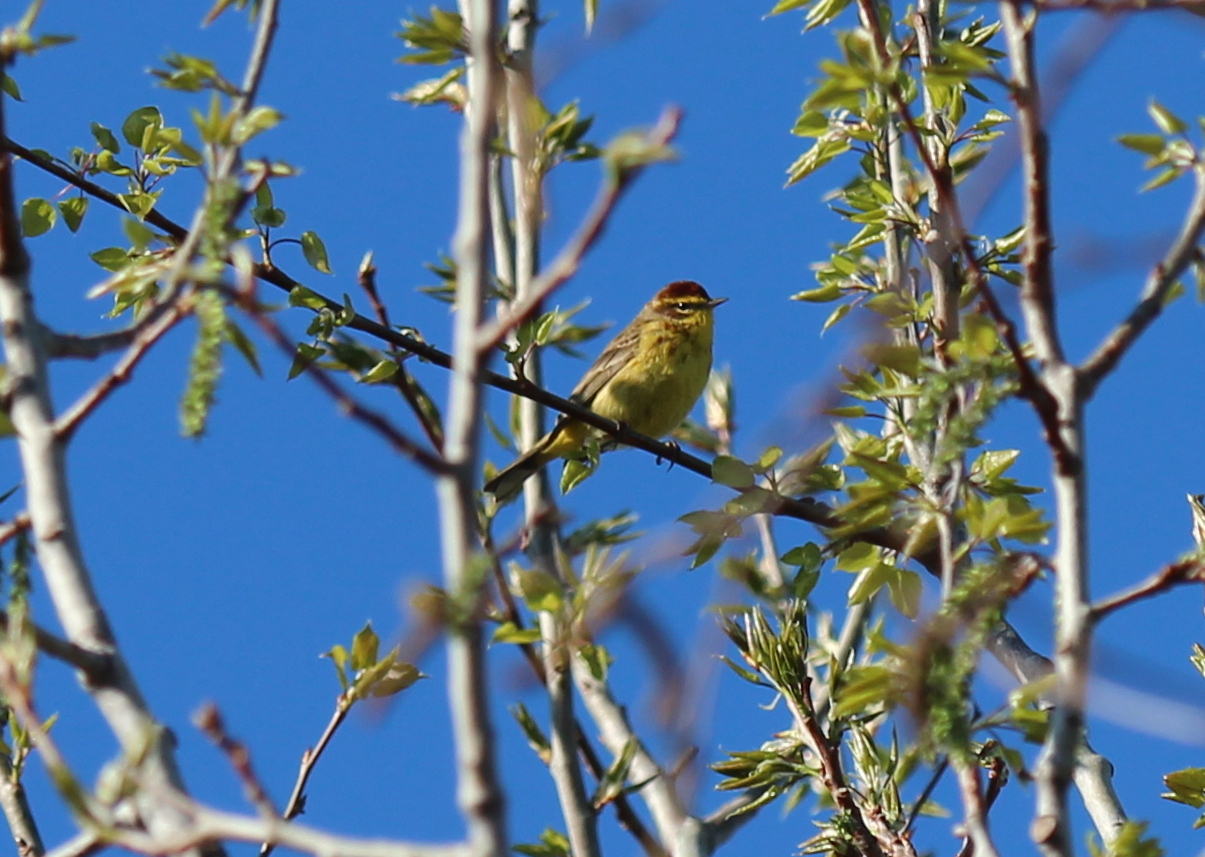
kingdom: Animalia
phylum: Chordata
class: Aves
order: Passeriformes
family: Parulidae
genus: Setophaga
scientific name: Setophaga palmarum
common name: Palm warbler
